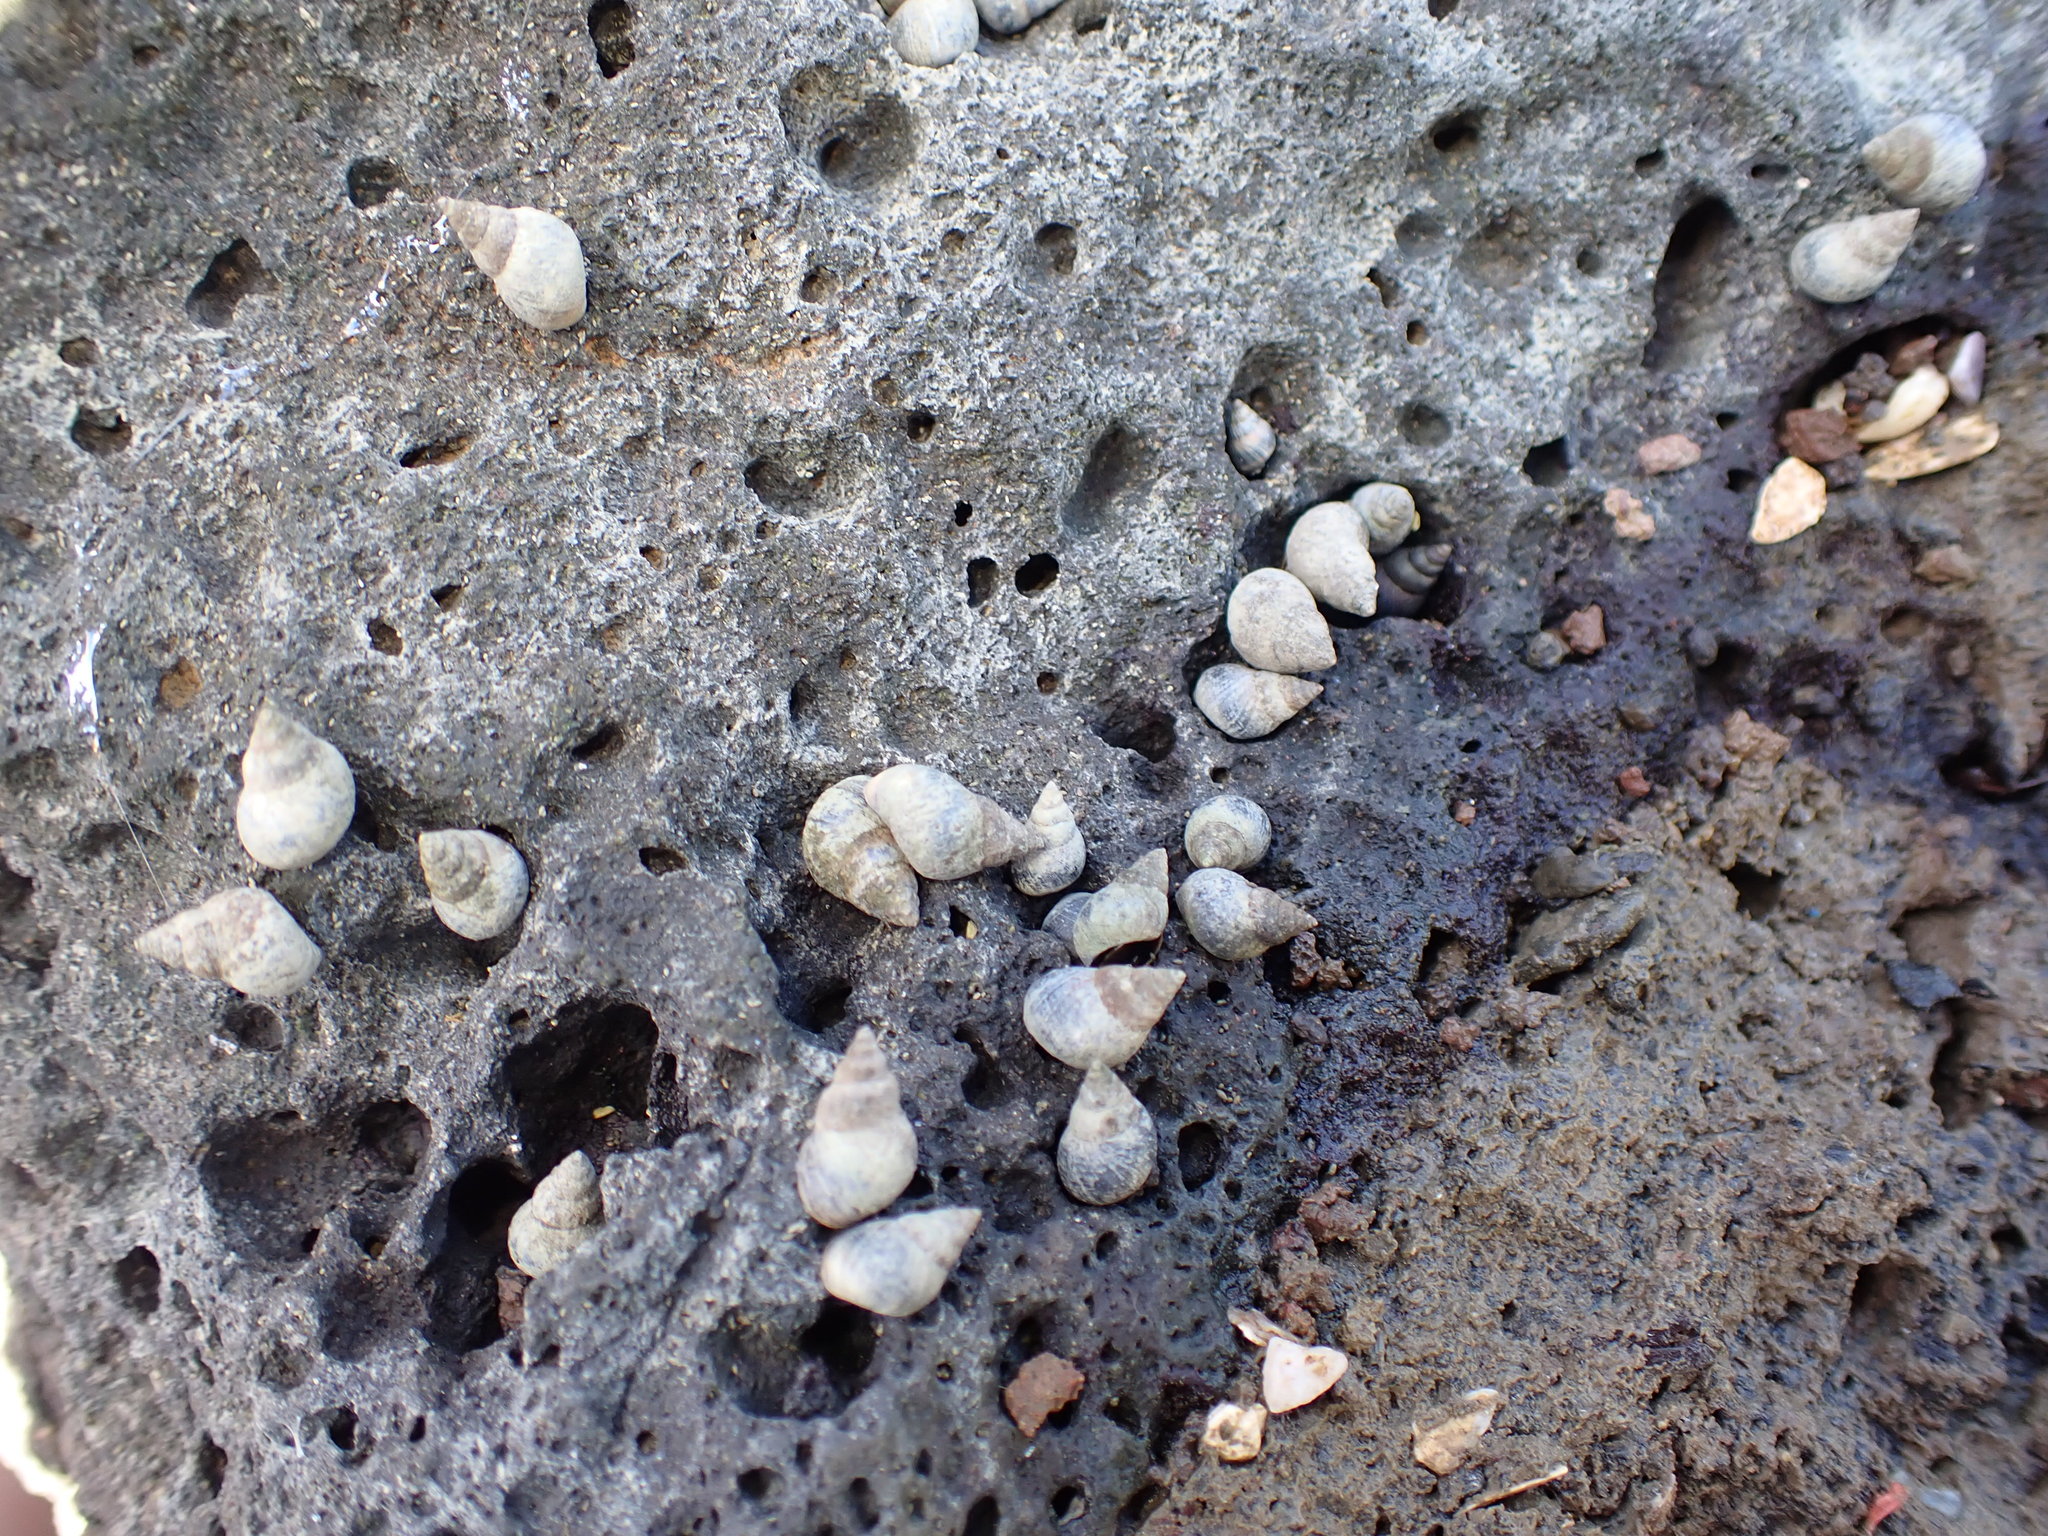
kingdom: Animalia
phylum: Mollusca
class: Gastropoda
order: Littorinimorpha
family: Littorinidae
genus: Austrolittorina
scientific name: Austrolittorina antipodum
